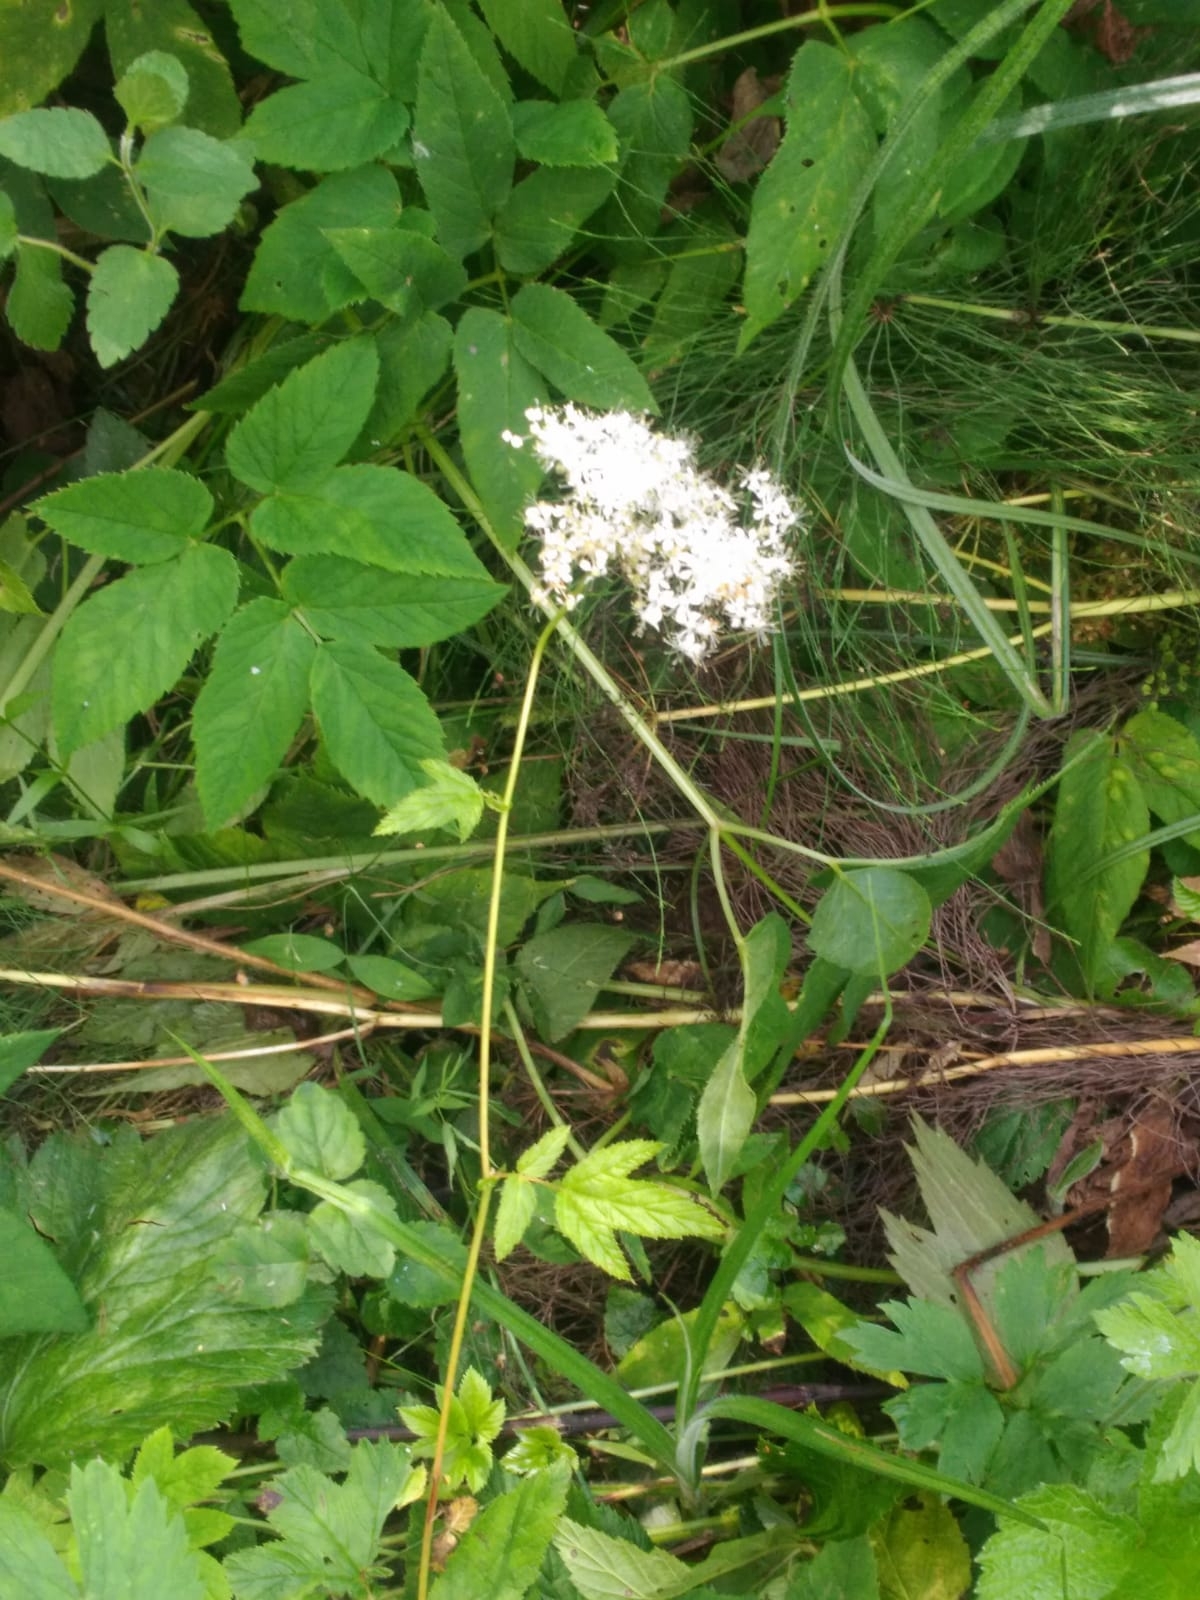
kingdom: Plantae
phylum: Tracheophyta
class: Magnoliopsida
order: Rosales
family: Rosaceae
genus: Filipendula
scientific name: Filipendula ulmaria
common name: Meadowsweet
